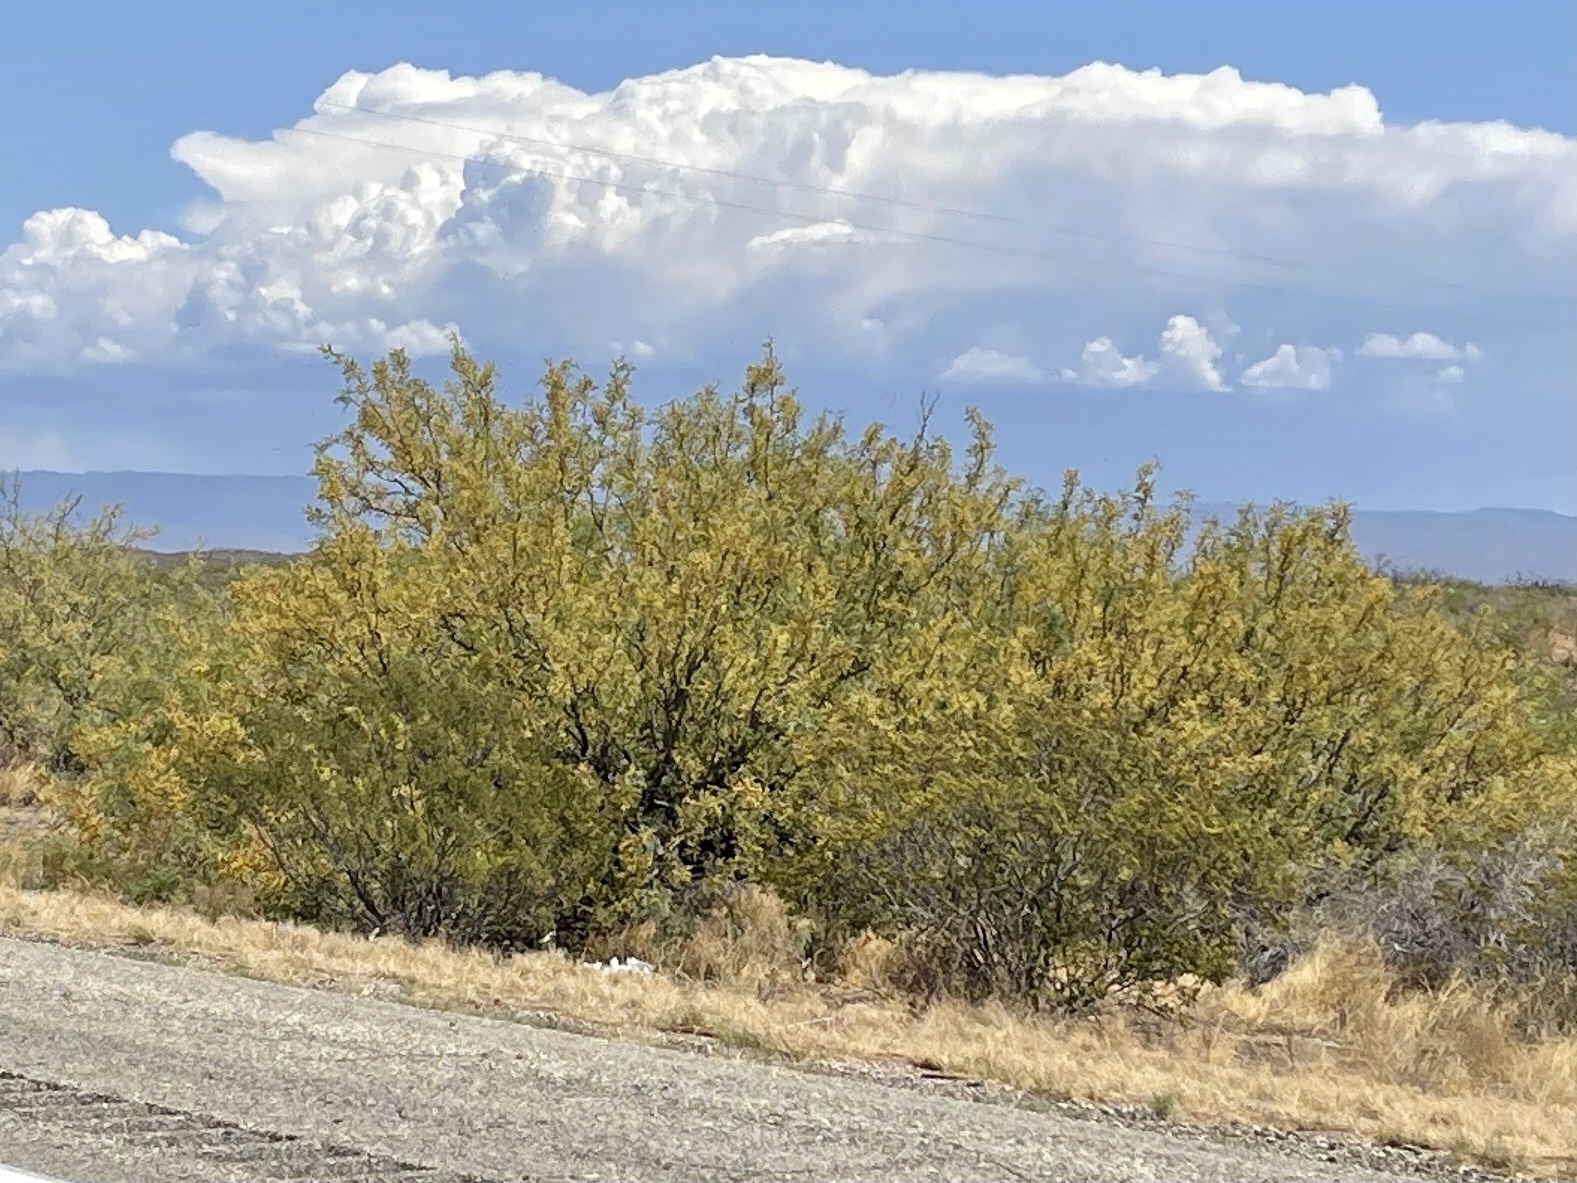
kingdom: Plantae
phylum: Tracheophyta
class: Magnoliopsida
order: Fabales
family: Fabaceae
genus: Prosopis
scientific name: Prosopis glandulosa
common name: Honey mesquite
